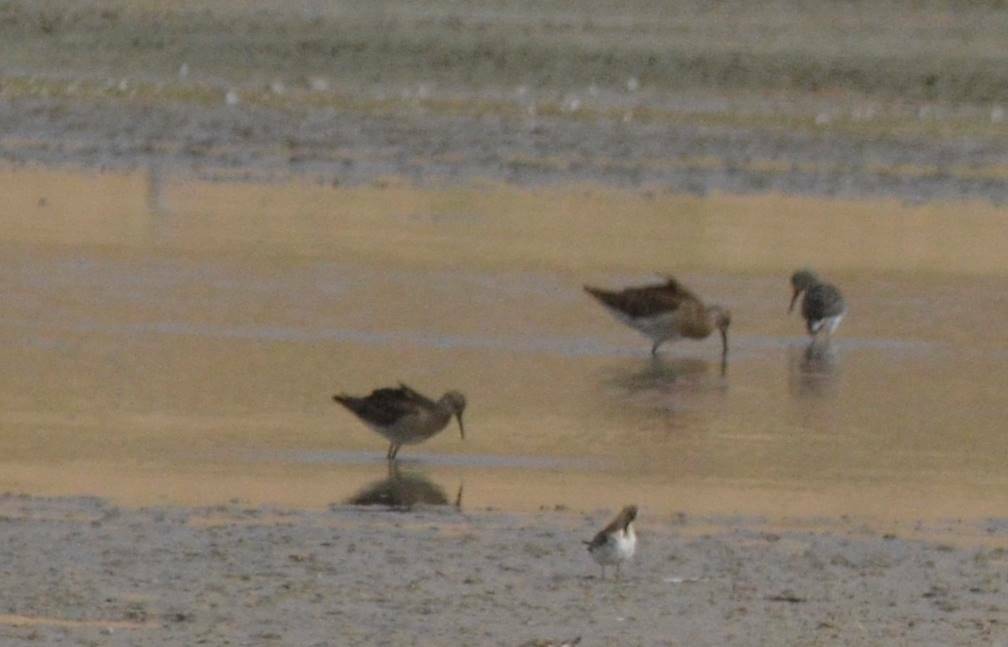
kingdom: Animalia
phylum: Chordata
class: Aves
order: Charadriiformes
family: Scolopacidae
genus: Calidris
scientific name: Calidris pugnax
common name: Ruff
